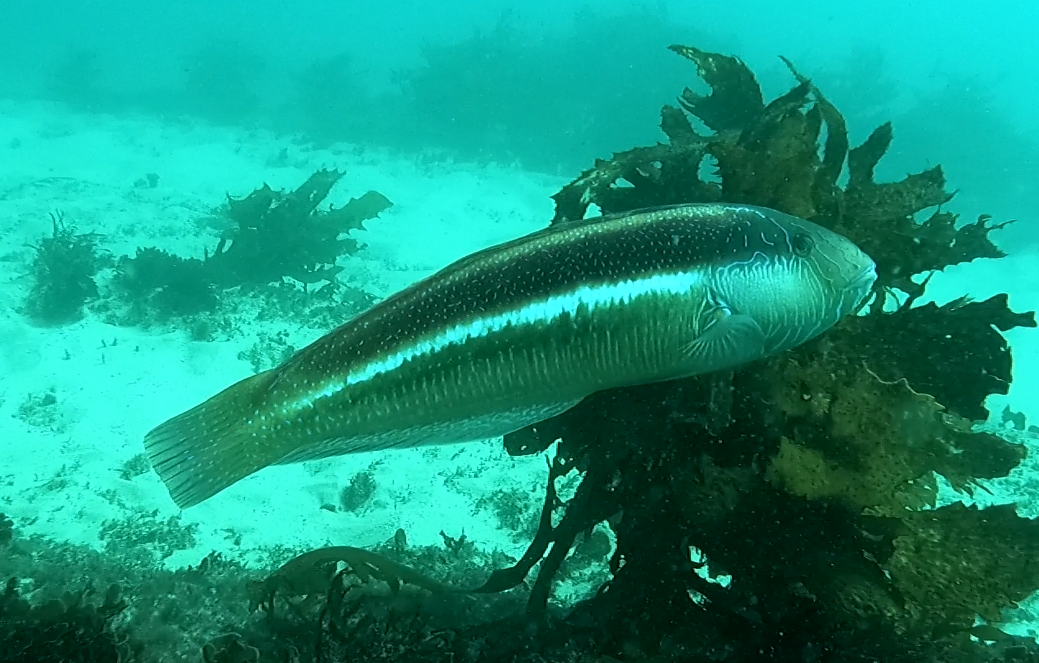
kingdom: Animalia
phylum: Chordata
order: Perciformes
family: Labridae
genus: Ophthalmolepis
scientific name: Ophthalmolepis lineolata
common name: Maori wrasse
